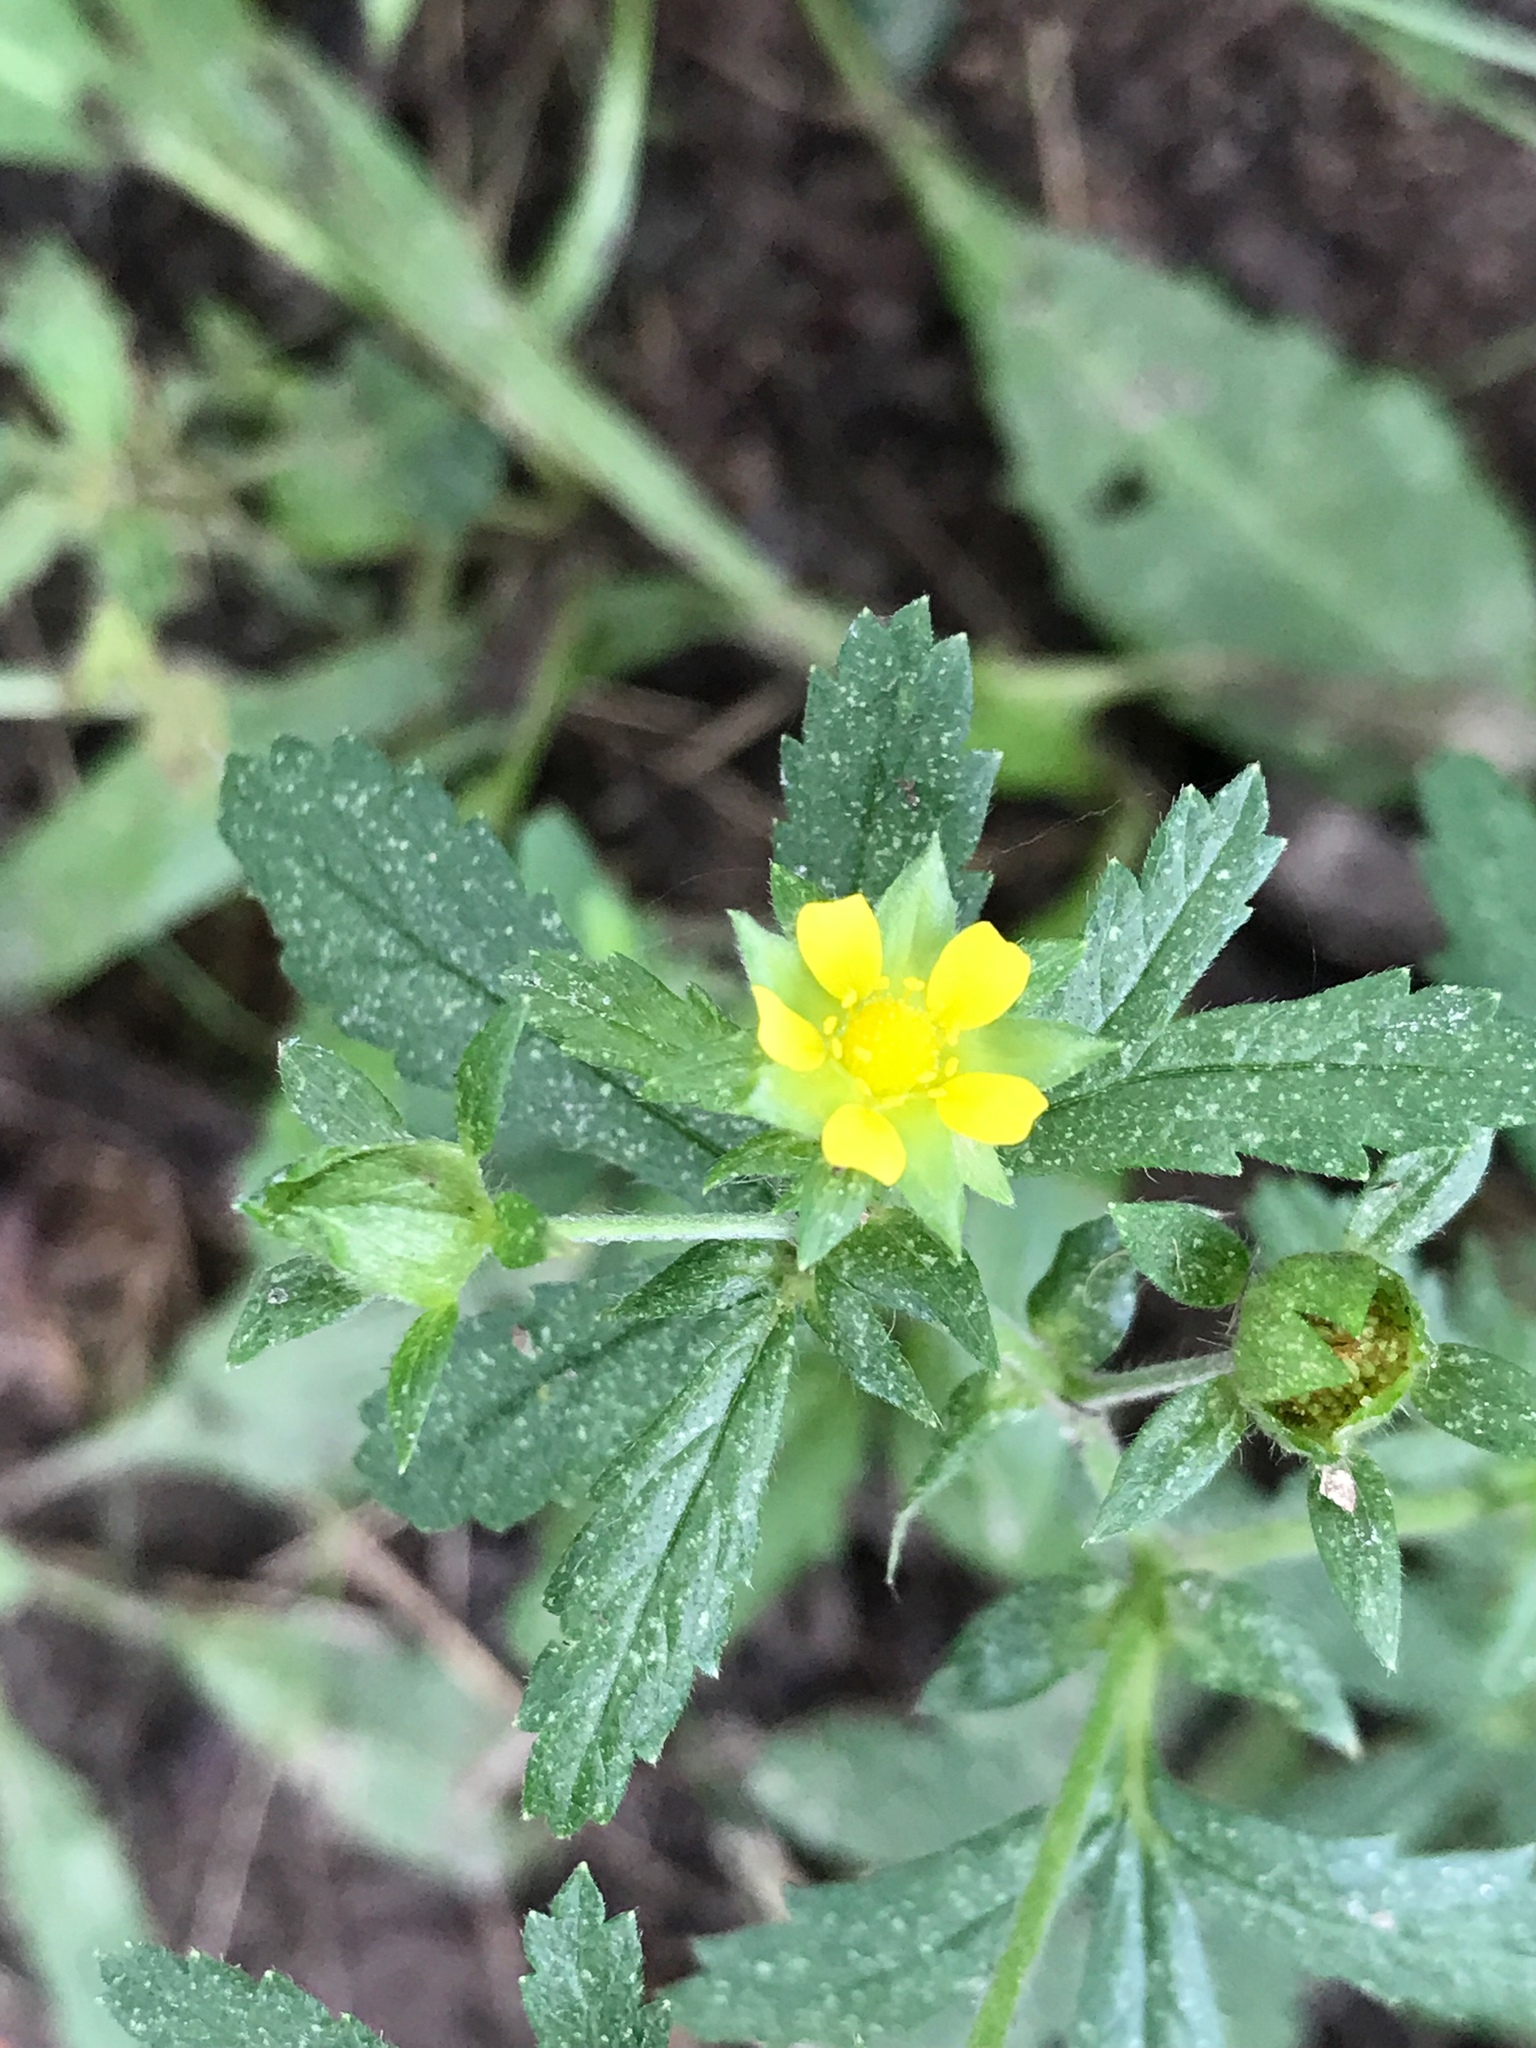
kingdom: Plantae
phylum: Tracheophyta
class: Magnoliopsida
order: Rosales
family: Rosaceae
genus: Potentilla
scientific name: Potentilla norvegica
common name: Ternate-leaved cinquefoil
